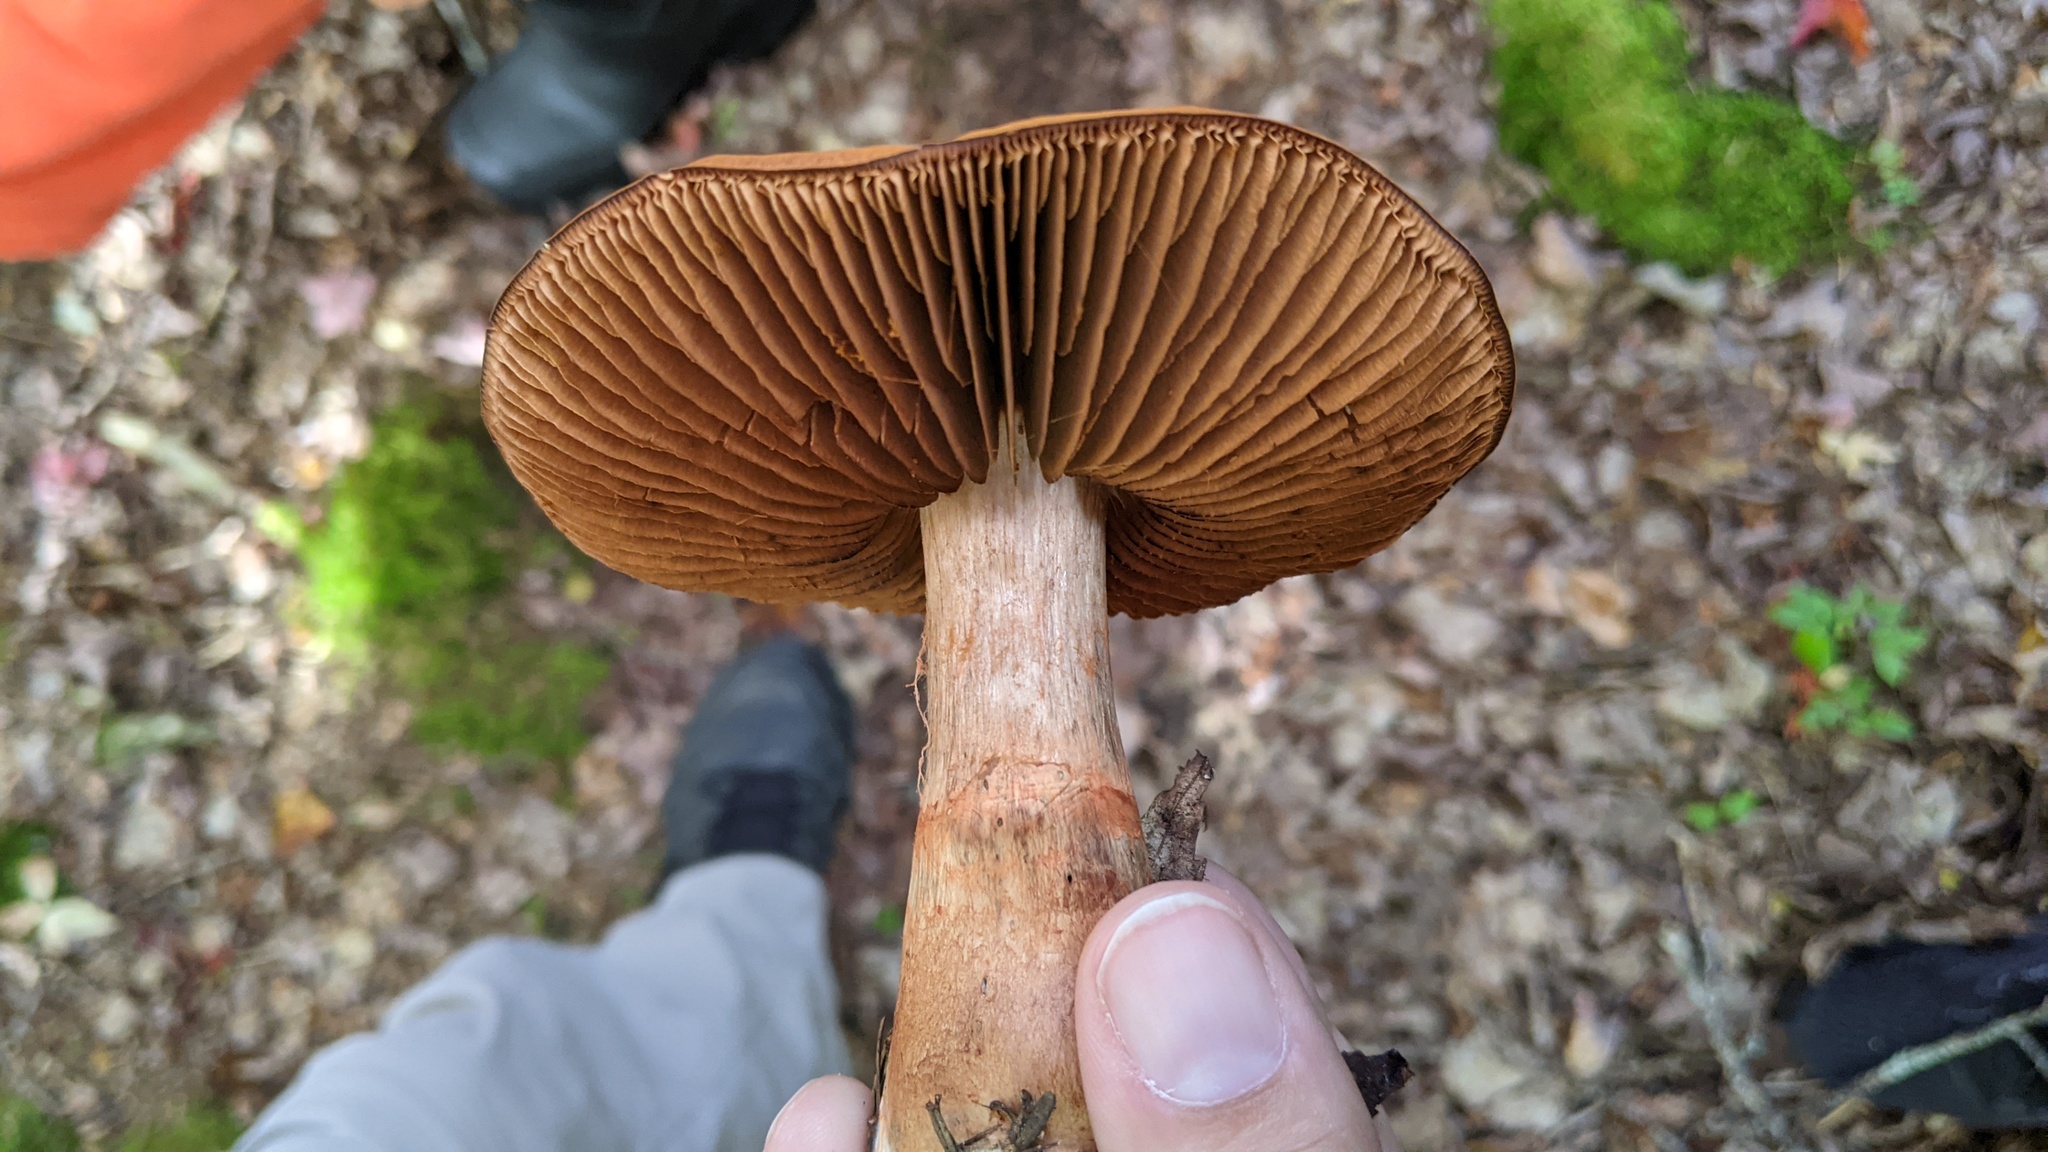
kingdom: Fungi
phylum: Basidiomycota
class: Agaricomycetes
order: Agaricales
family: Cortinariaceae
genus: Cortinarius
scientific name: Cortinarius armillatus
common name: Red banded webcap
